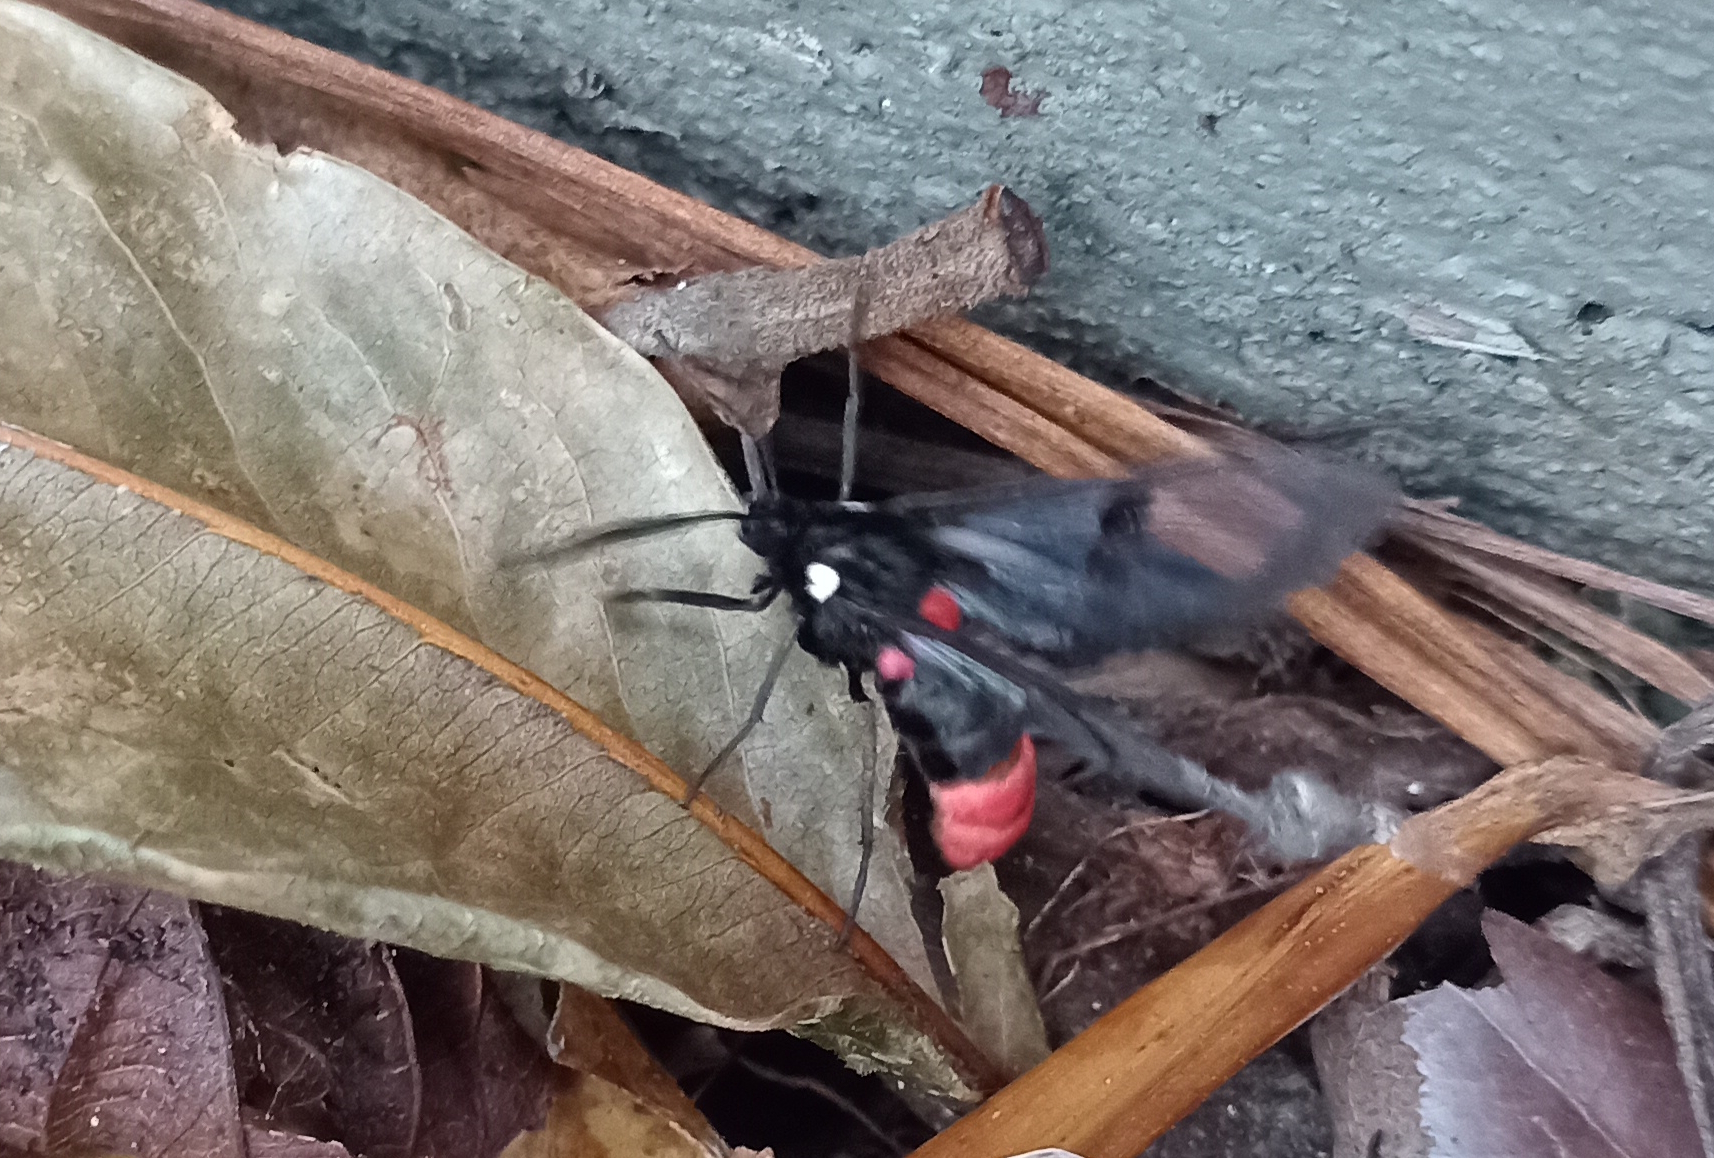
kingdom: Animalia
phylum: Arthropoda
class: Insecta
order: Lepidoptera
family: Erebidae
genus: Aethria
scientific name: Aethria haemorrhoidalis
